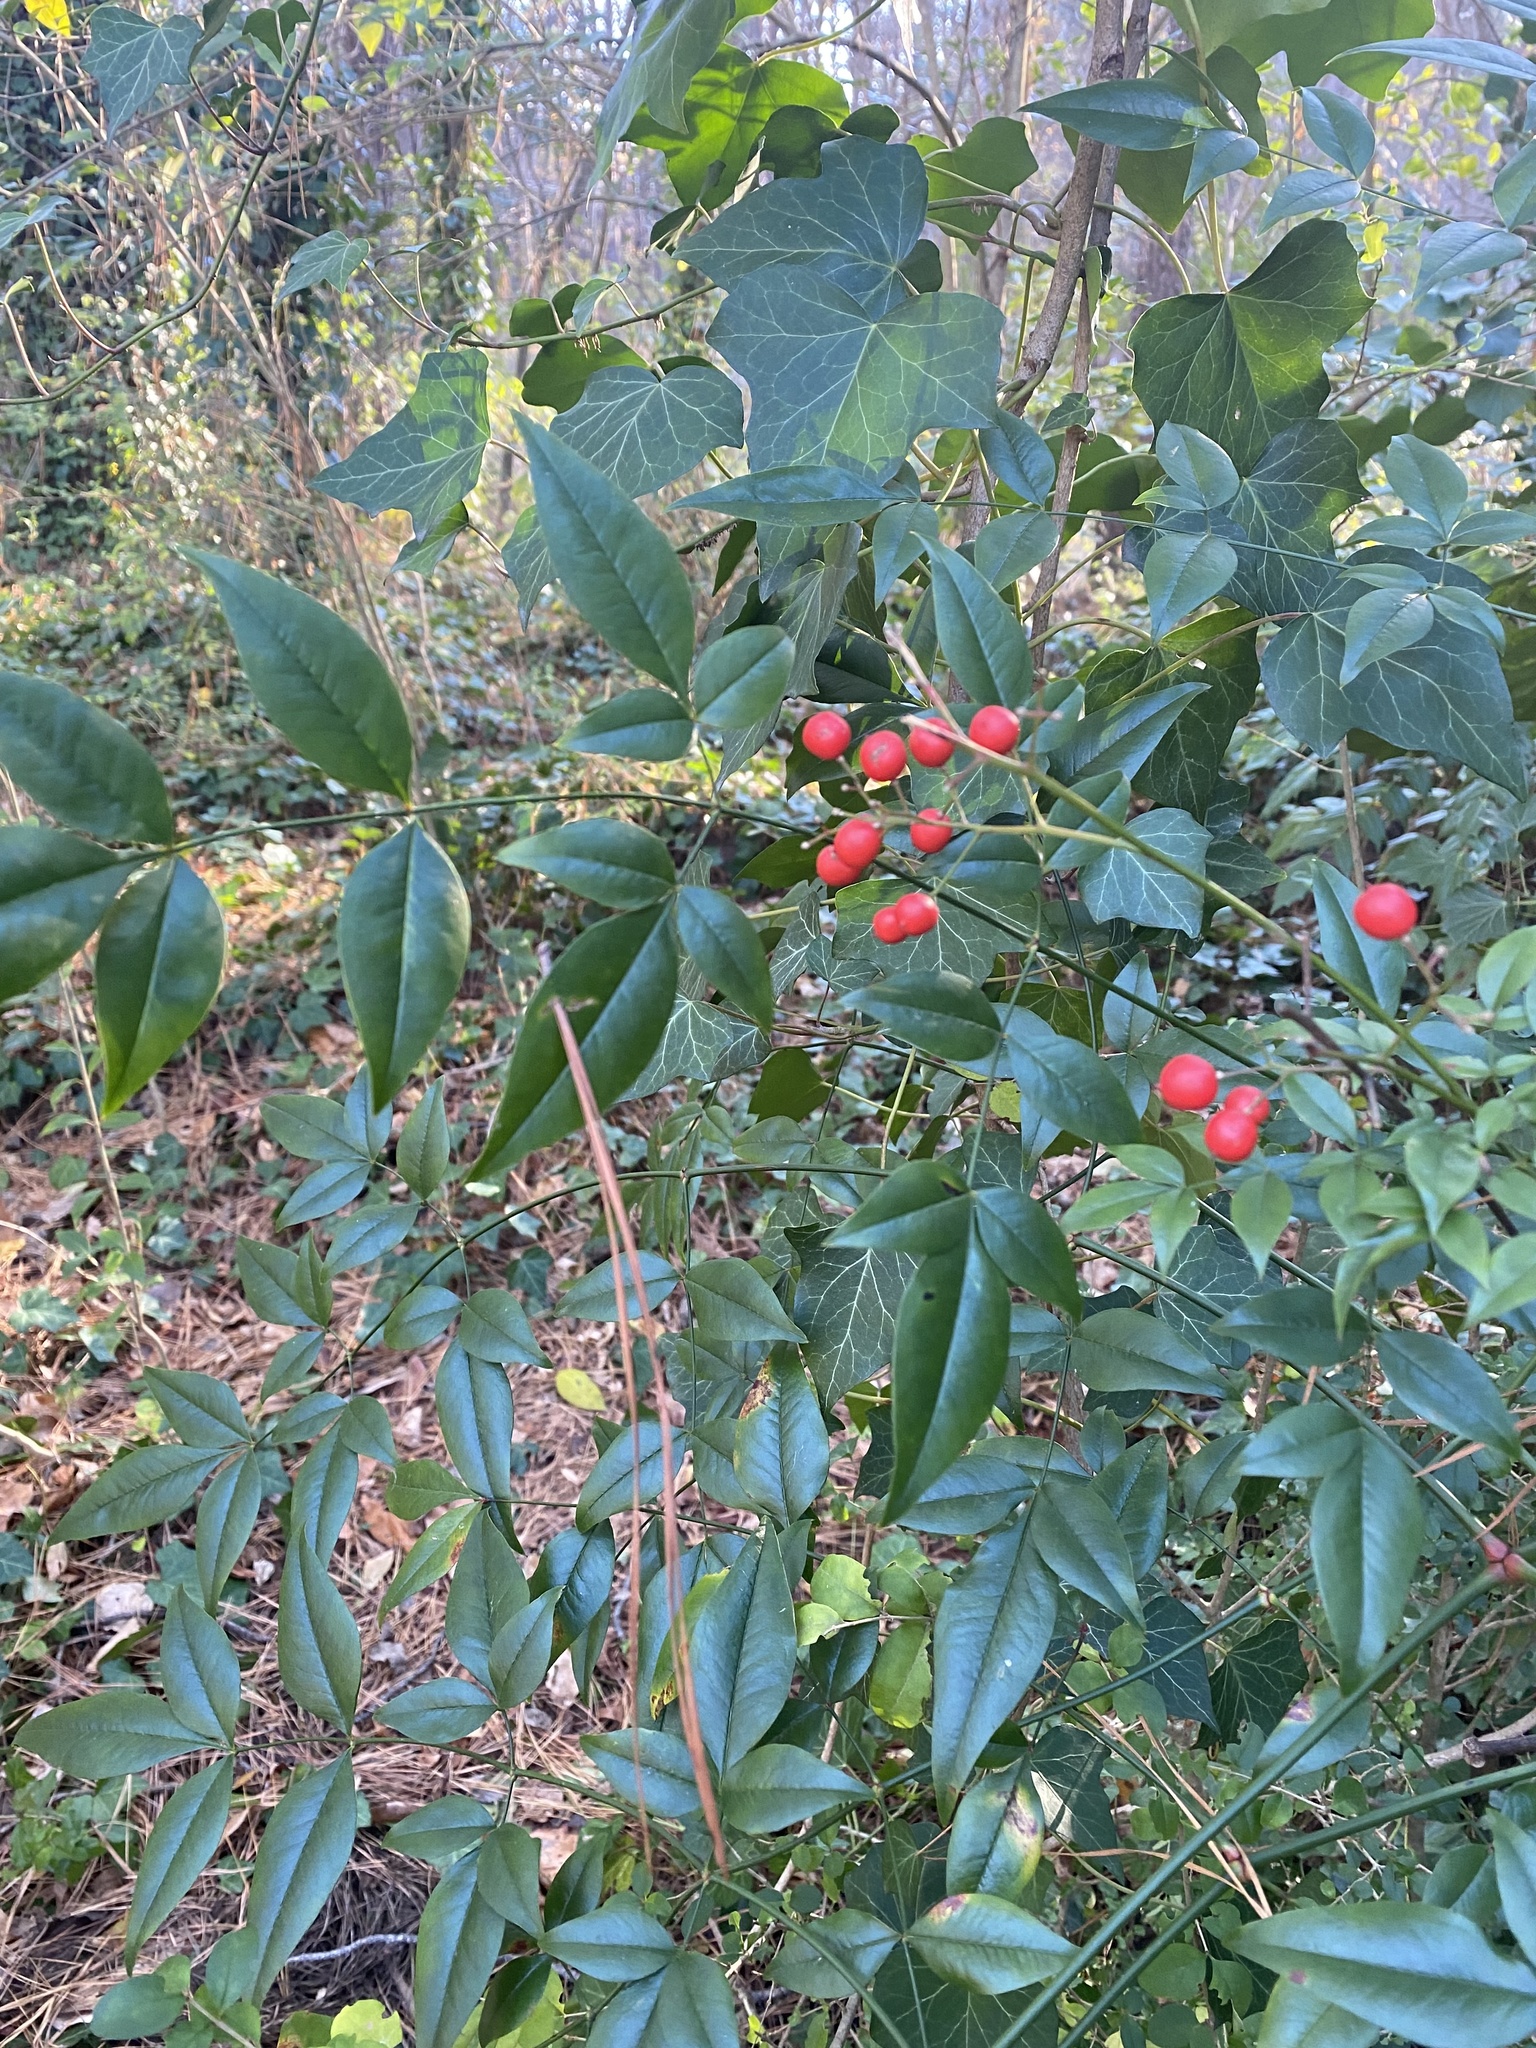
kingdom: Plantae
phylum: Tracheophyta
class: Magnoliopsida
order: Ranunculales
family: Berberidaceae
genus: Nandina
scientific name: Nandina domestica
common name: Sacred bamboo
